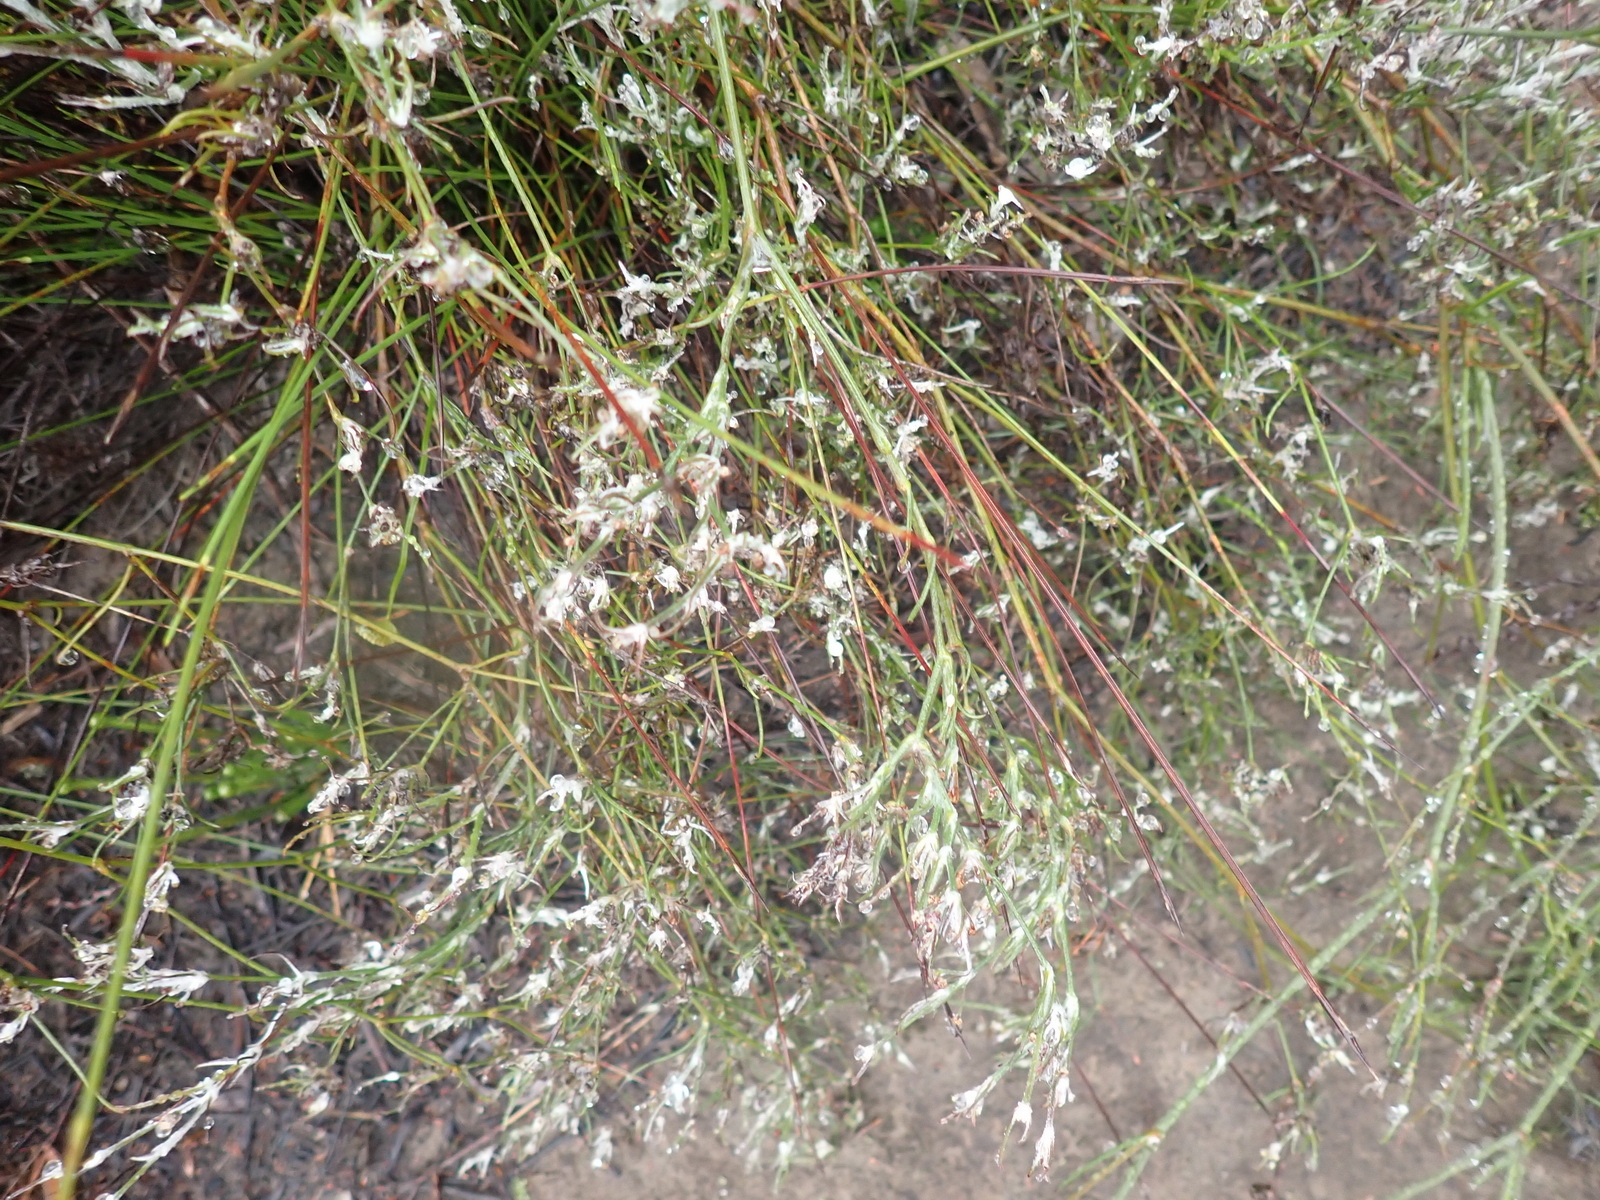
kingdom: Plantae
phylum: Tracheophyta
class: Magnoliopsida
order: Apiales
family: Apiaceae
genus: Centella
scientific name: Centella virgata
